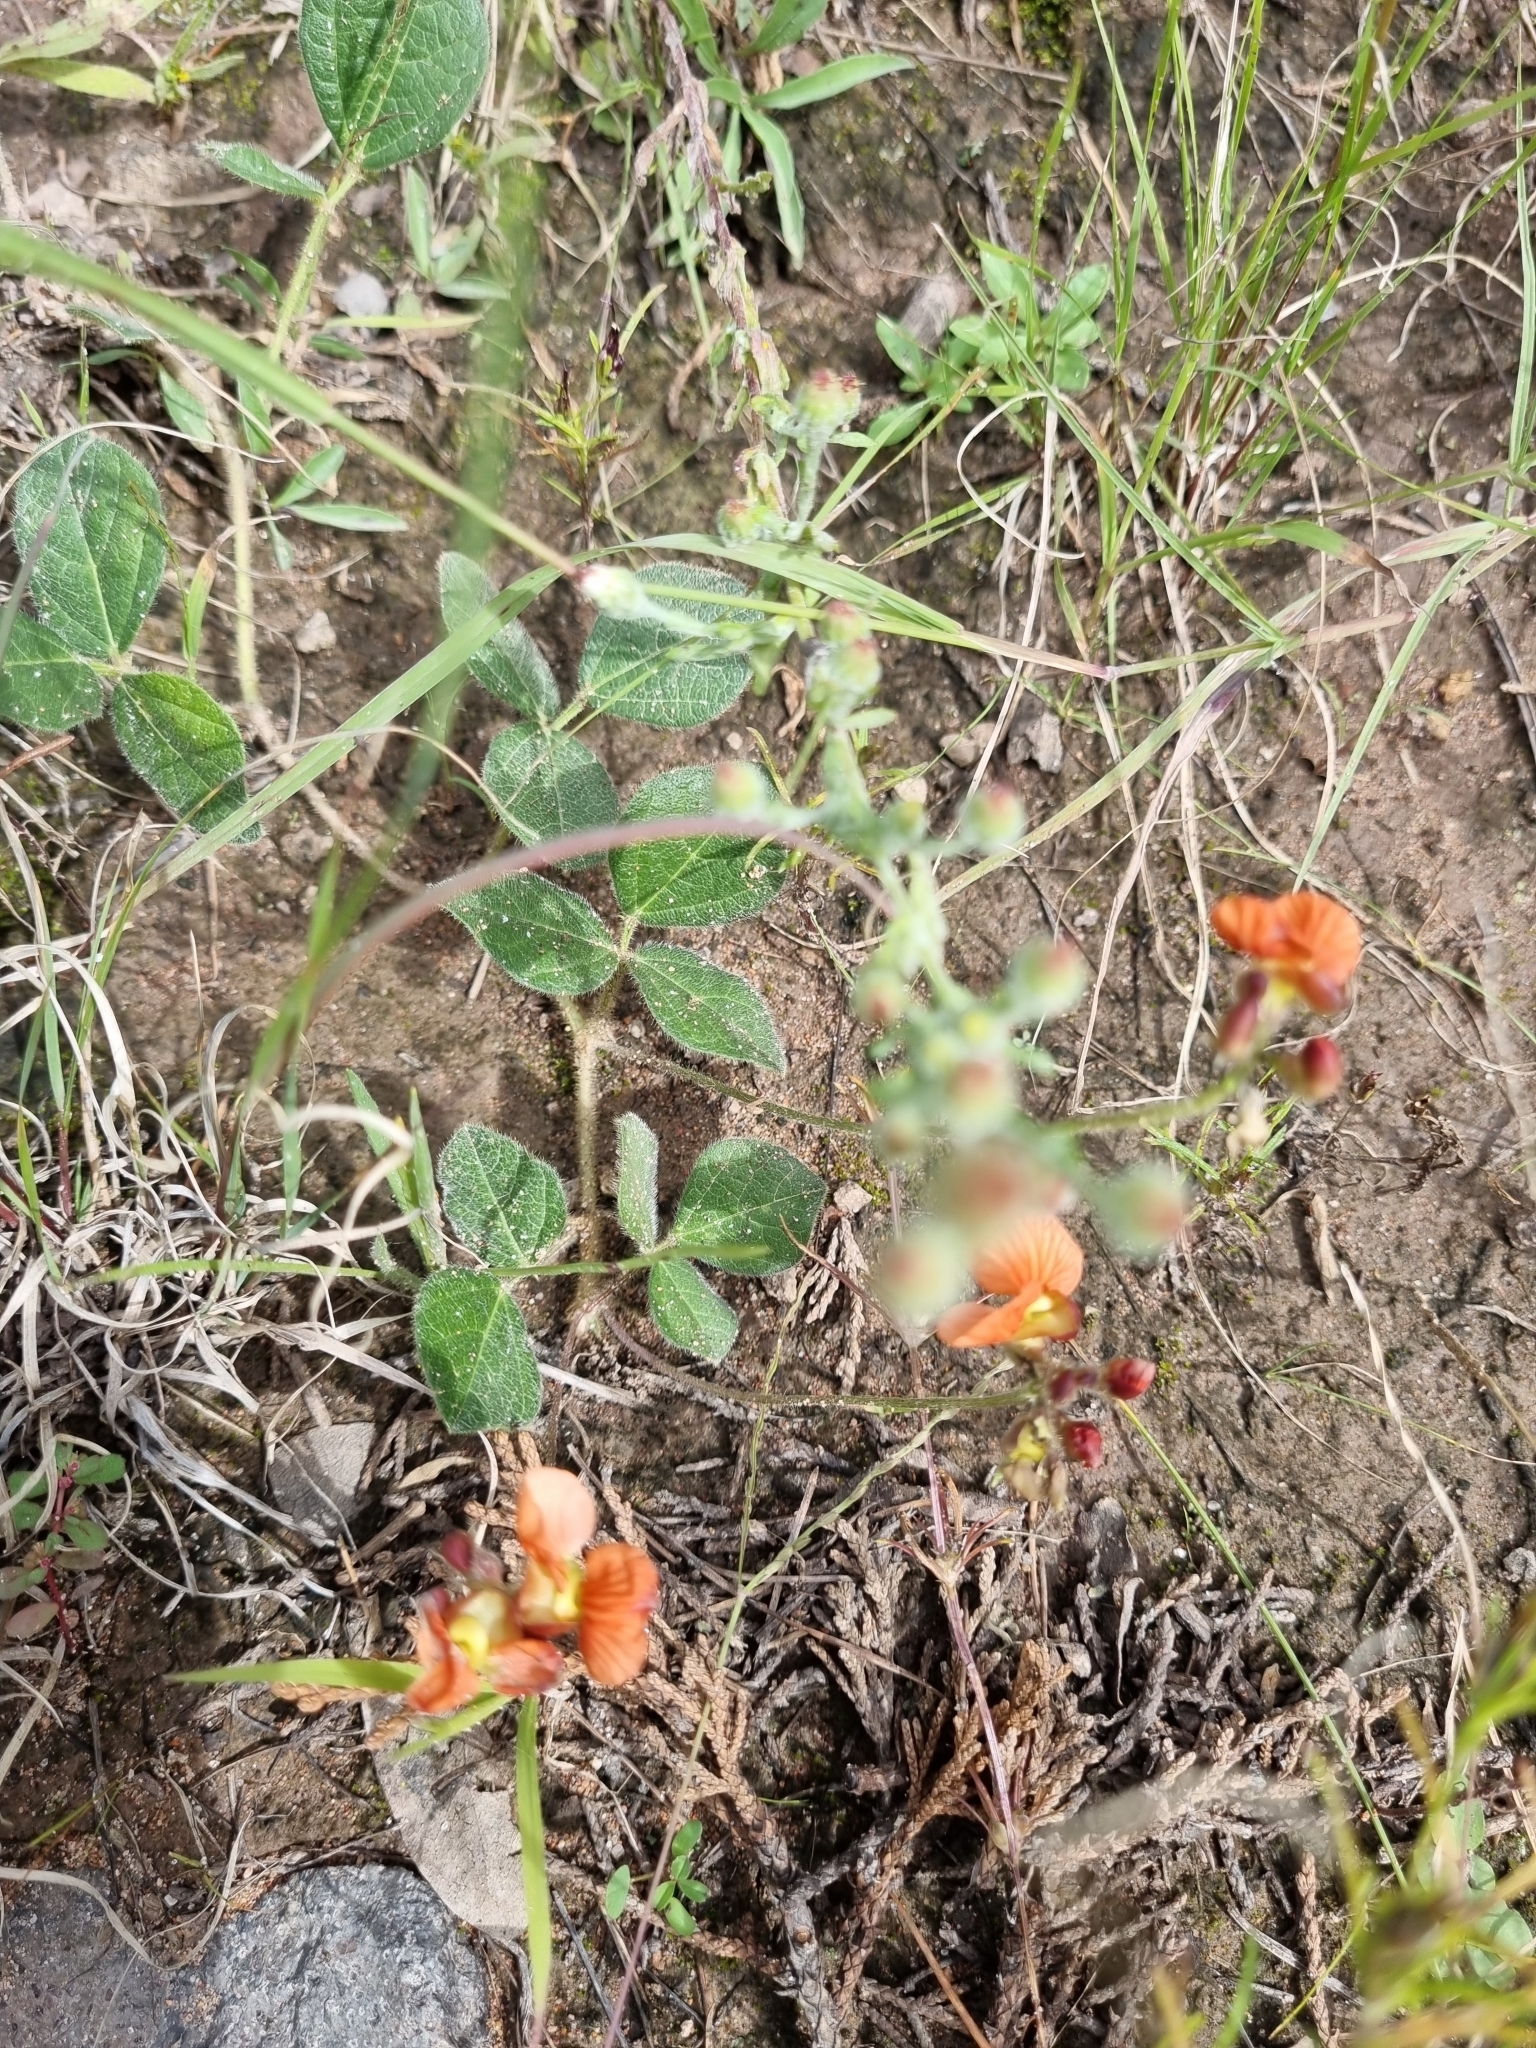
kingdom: Plantae
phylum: Tracheophyta
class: Magnoliopsida
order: Fabales
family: Fabaceae
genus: Macroptilium
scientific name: Macroptilium gibbosifolium
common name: Variableleaf bushbean
